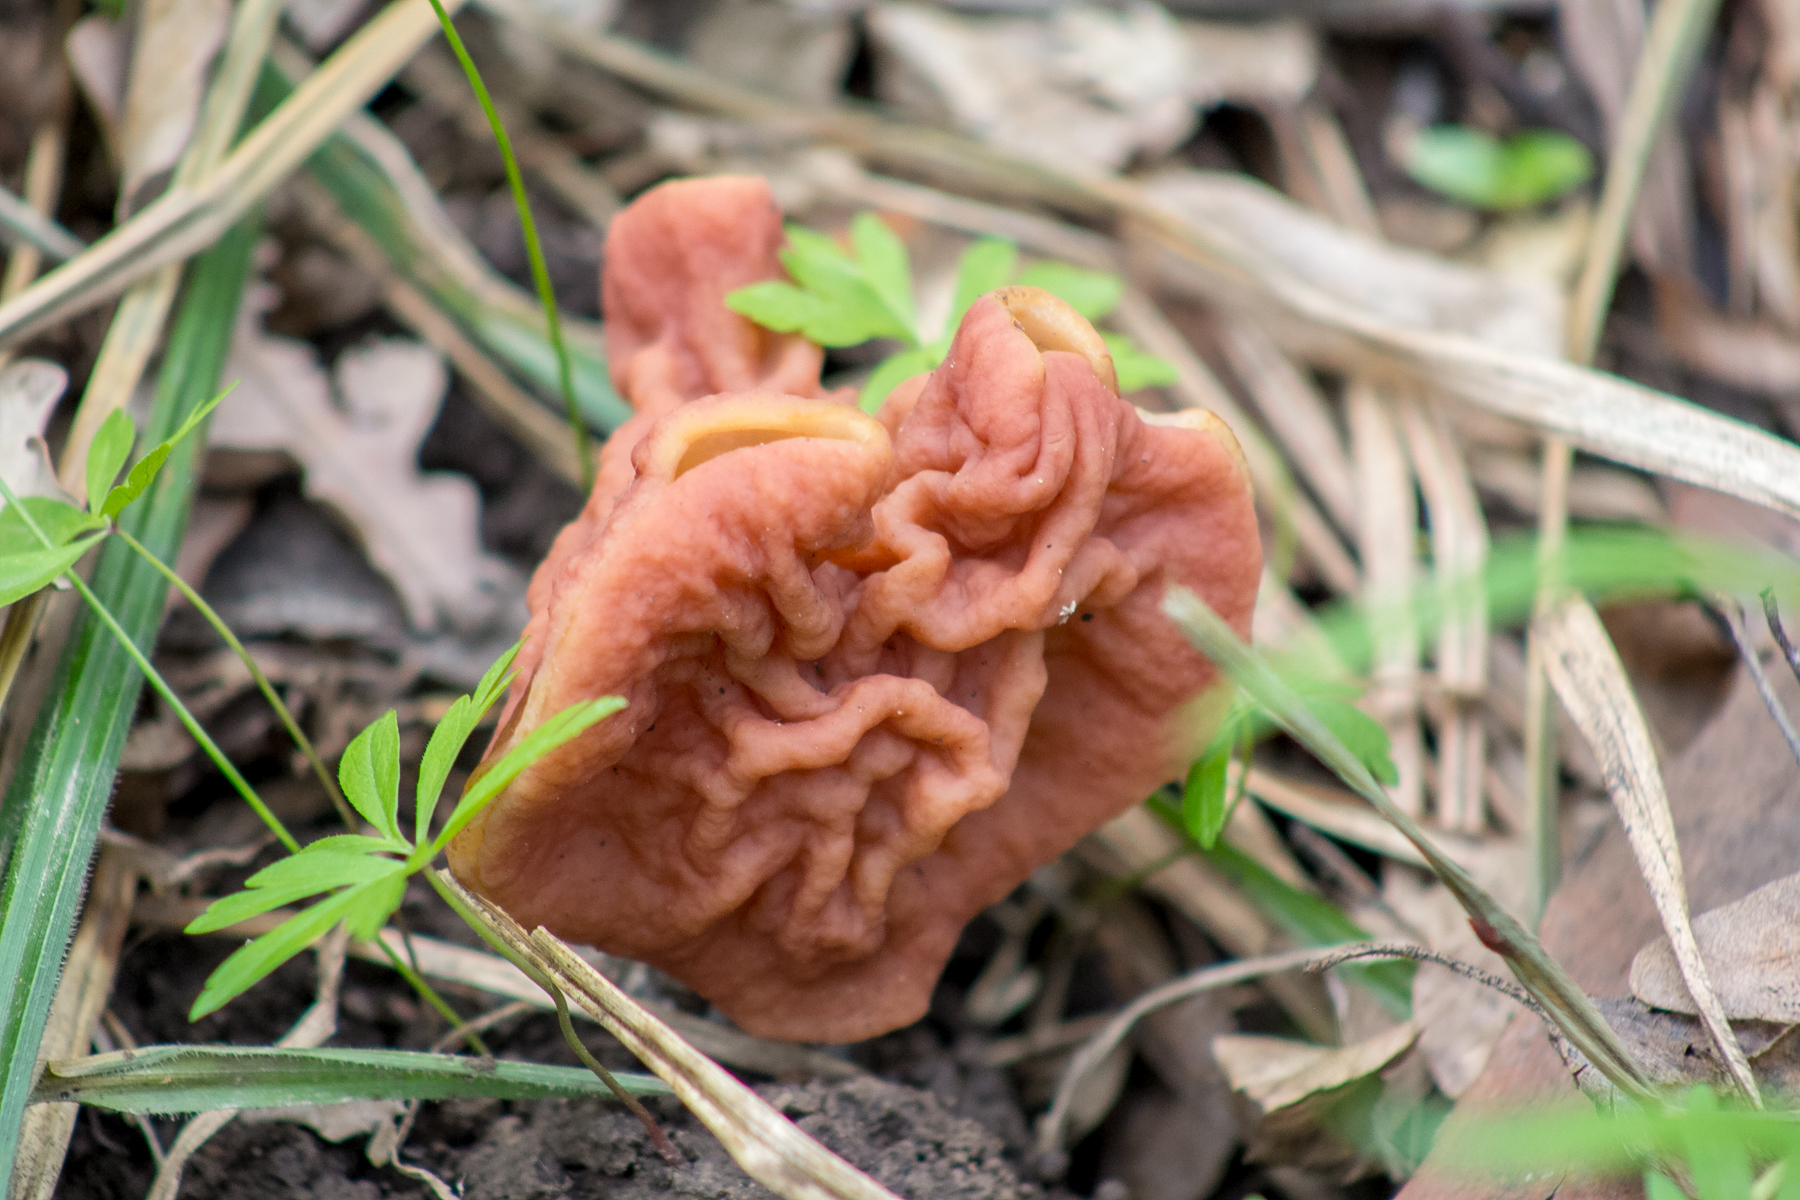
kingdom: Fungi
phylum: Ascomycota
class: Pezizomycetes
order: Pezizales
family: Discinaceae
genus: Discina
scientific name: Discina fastigiata
